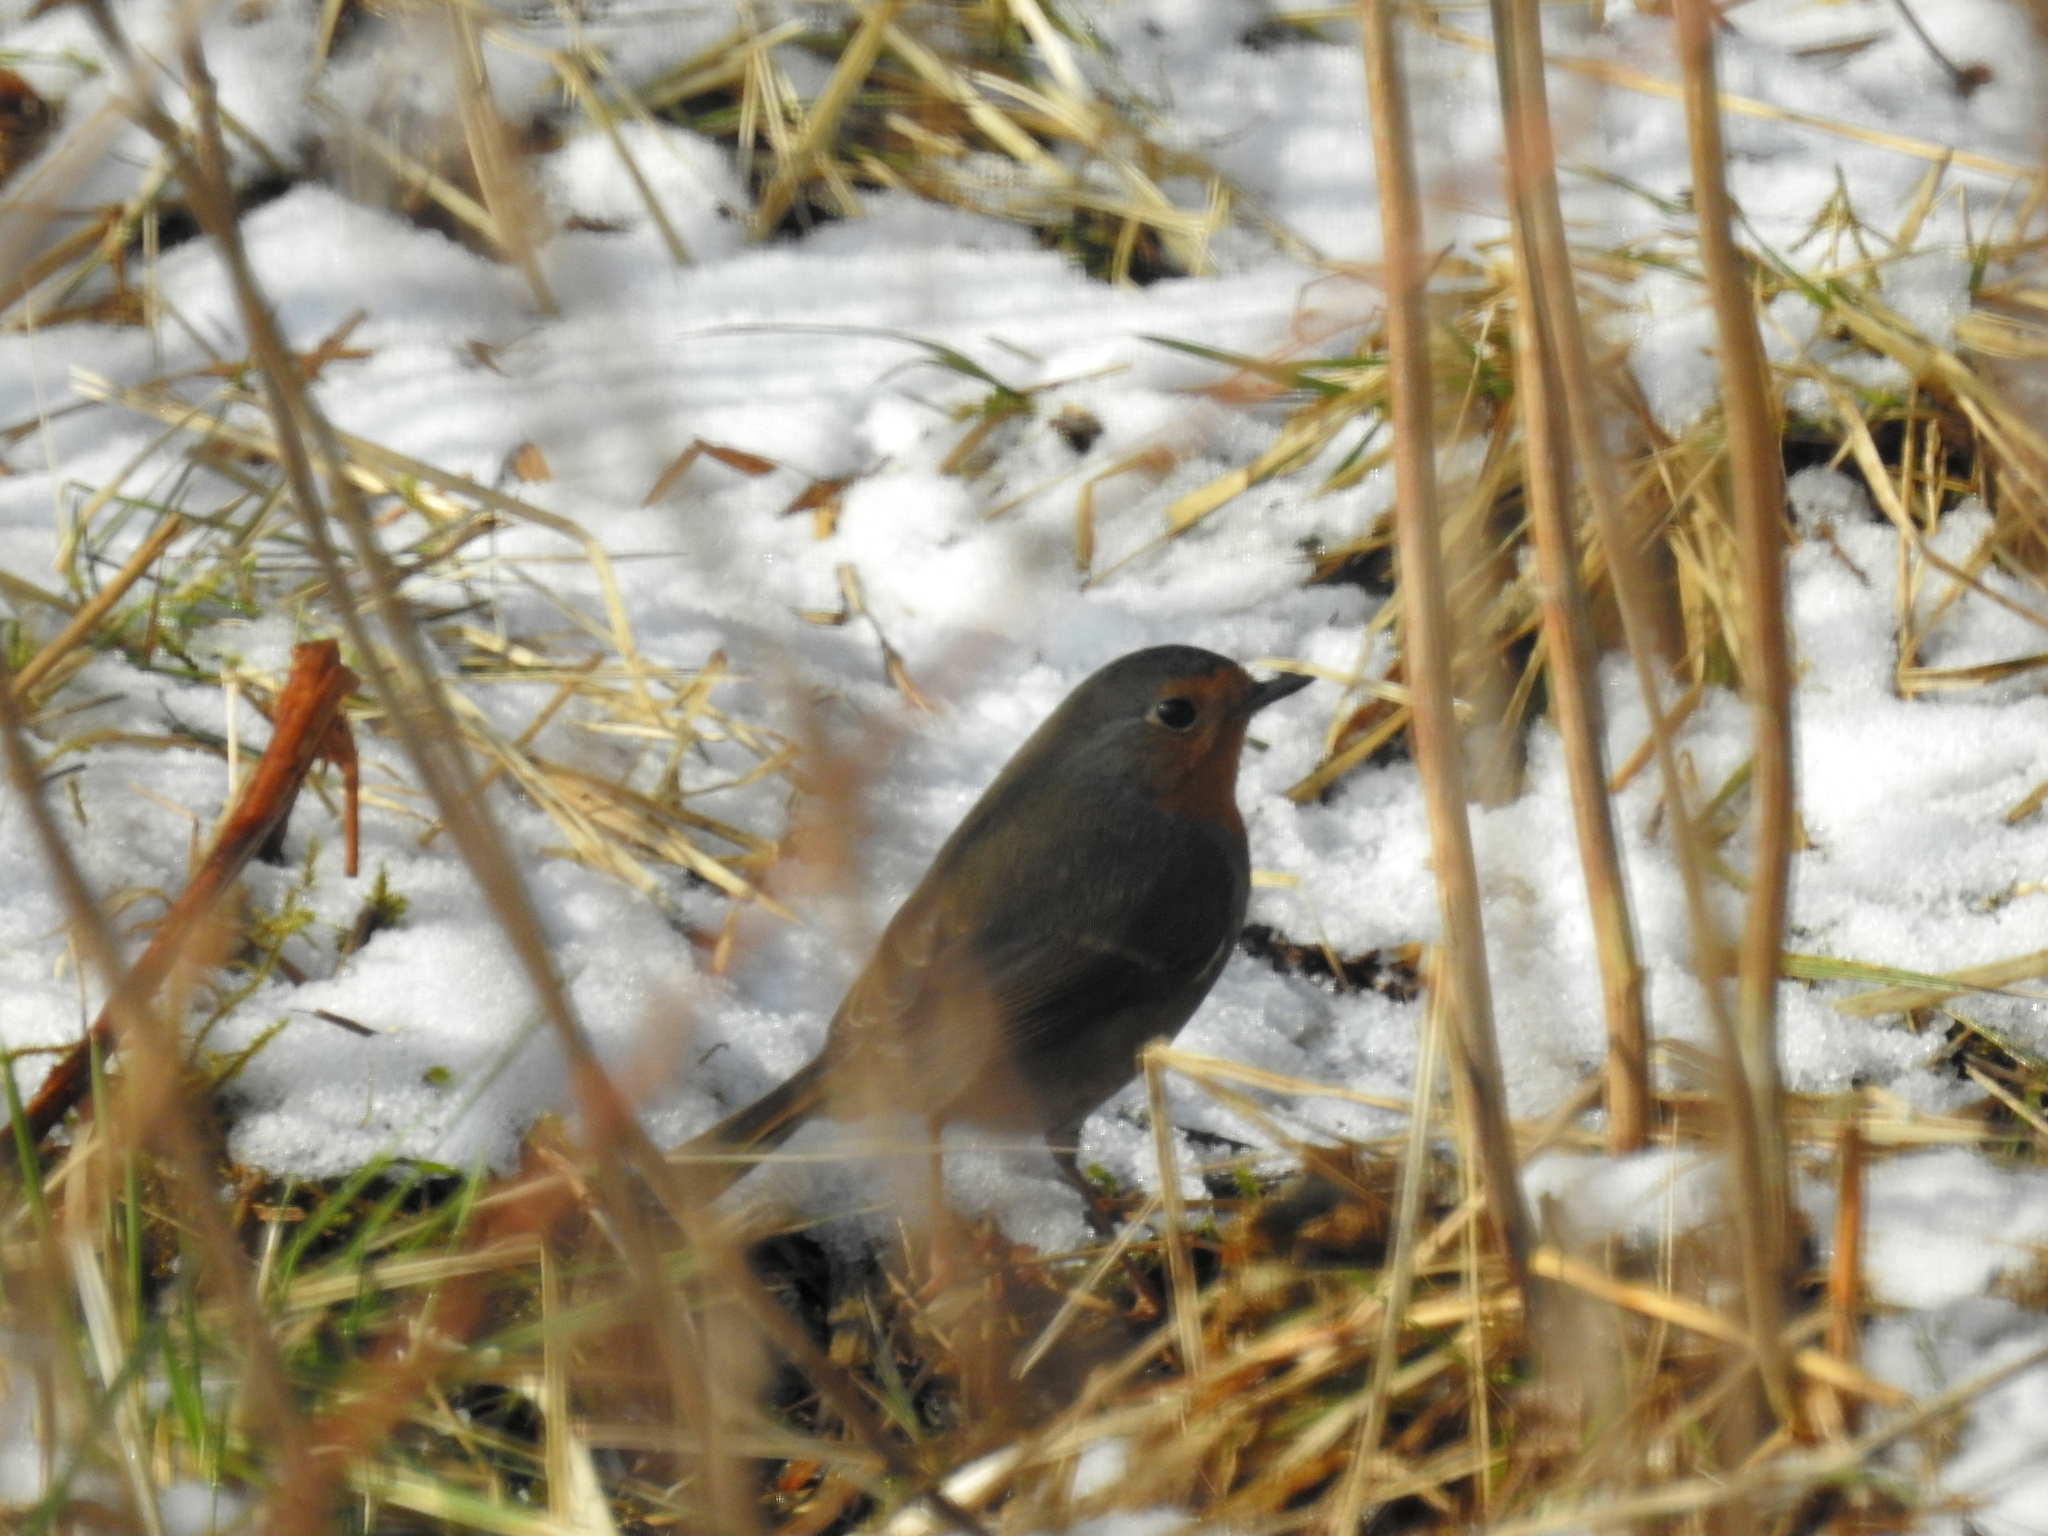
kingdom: Animalia
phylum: Chordata
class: Aves
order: Passeriformes
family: Muscicapidae
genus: Erithacus
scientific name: Erithacus rubecula
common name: European robin
